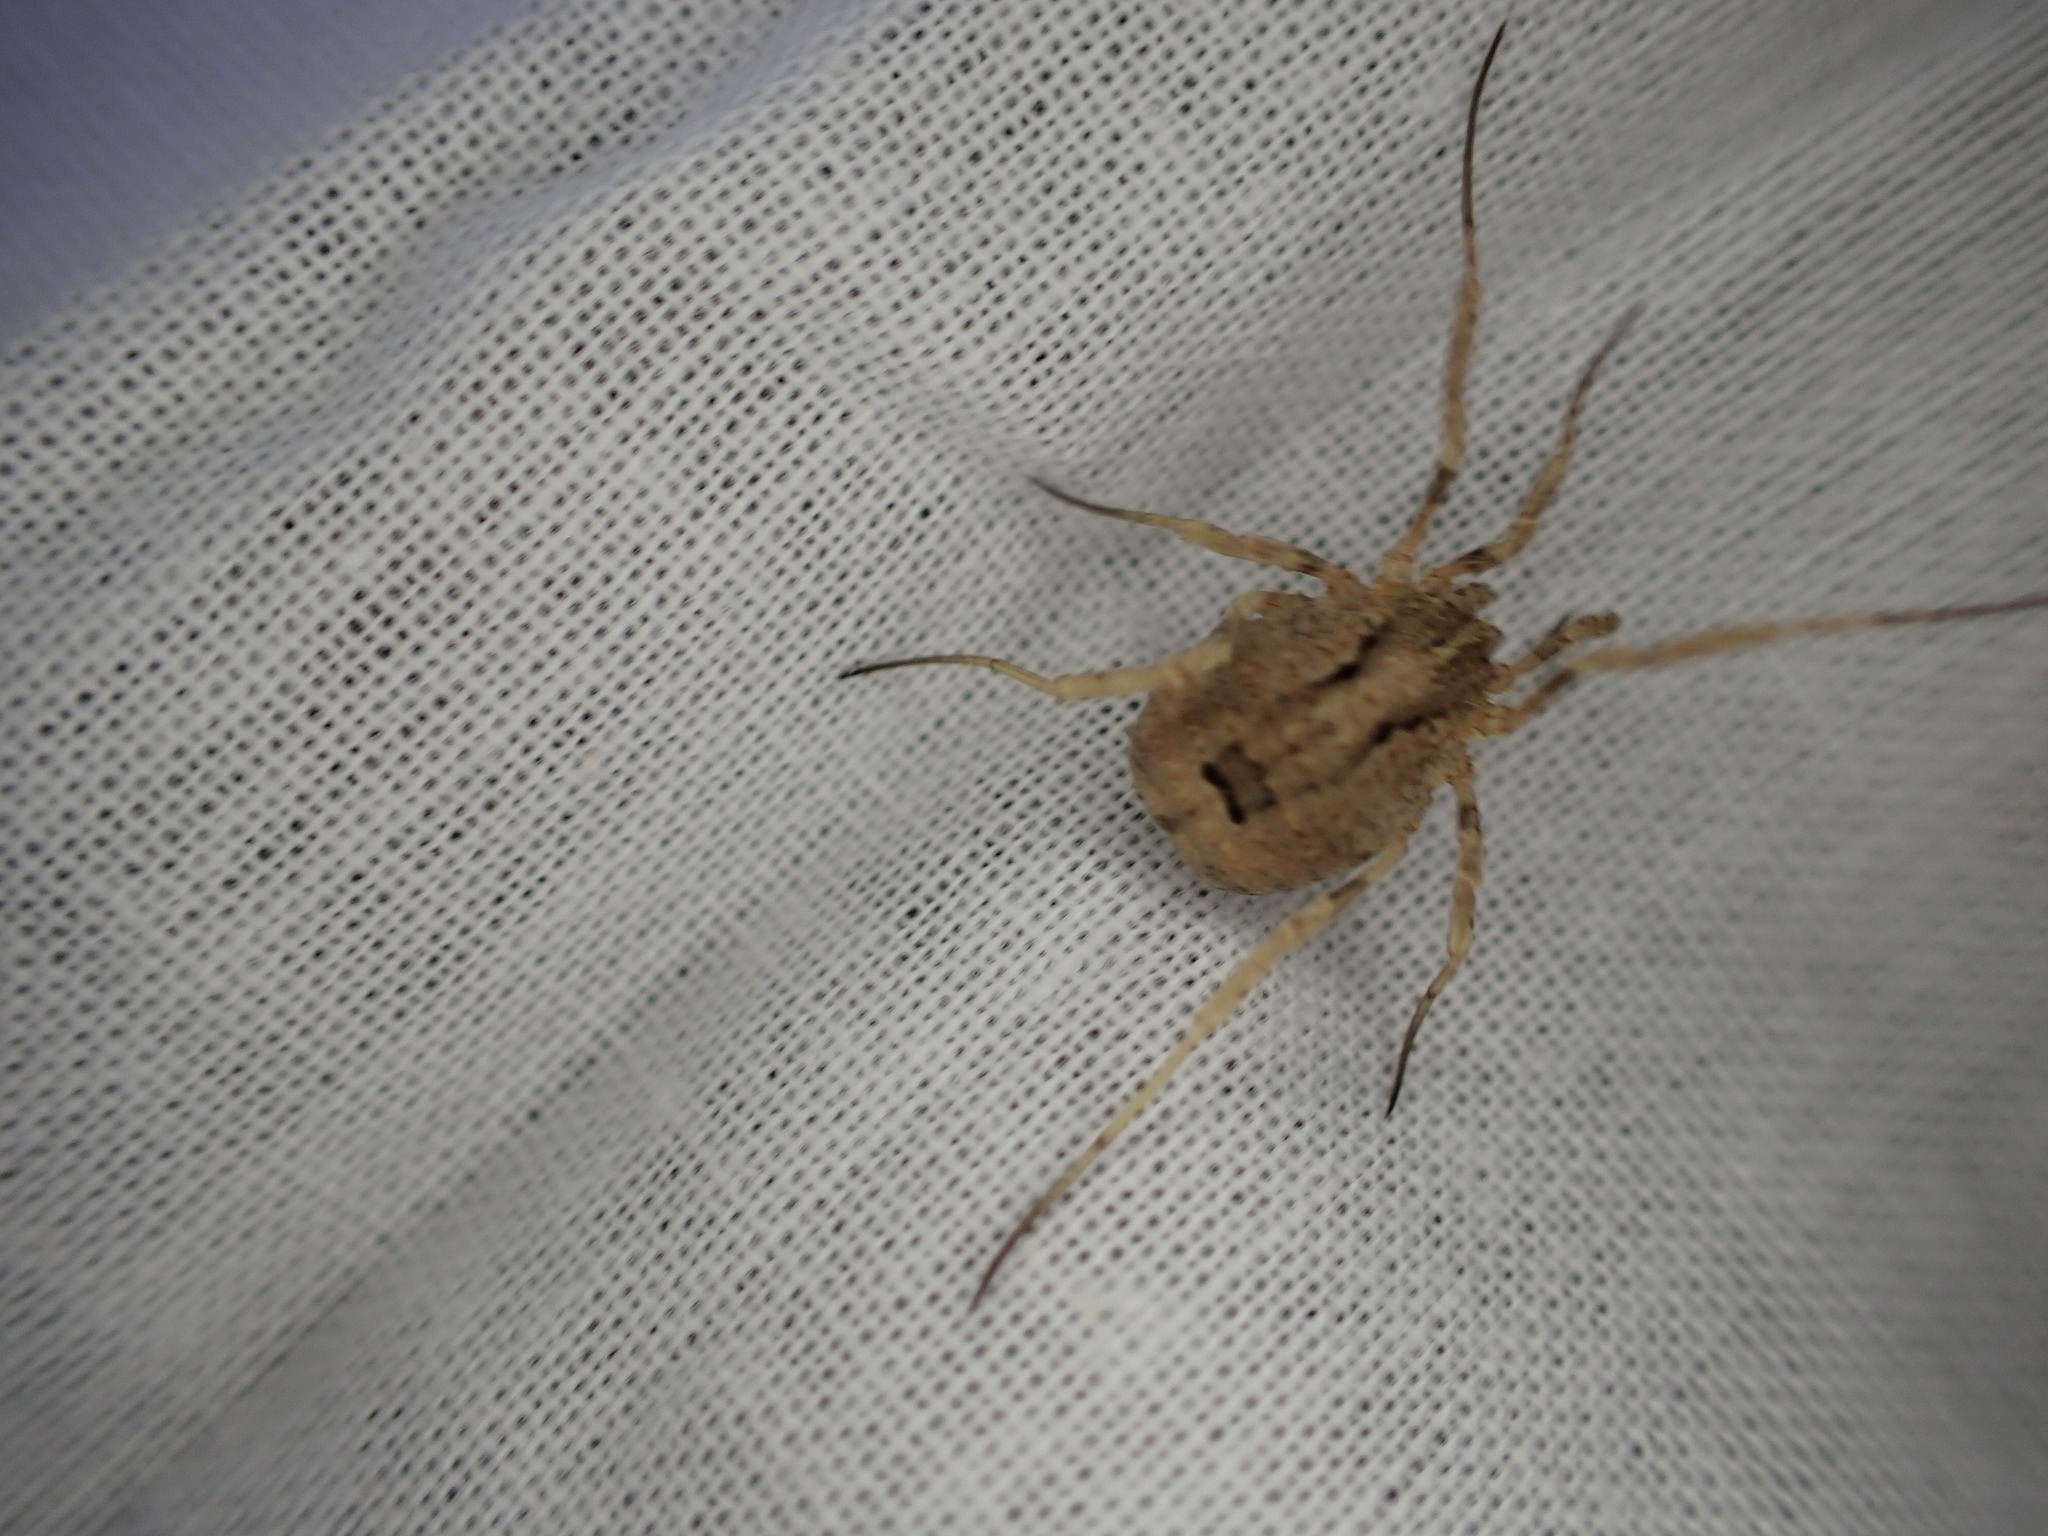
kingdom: Animalia
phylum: Arthropoda
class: Arachnida
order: Opiliones
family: Phalangiidae
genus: Odiellus
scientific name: Odiellus spinosus
